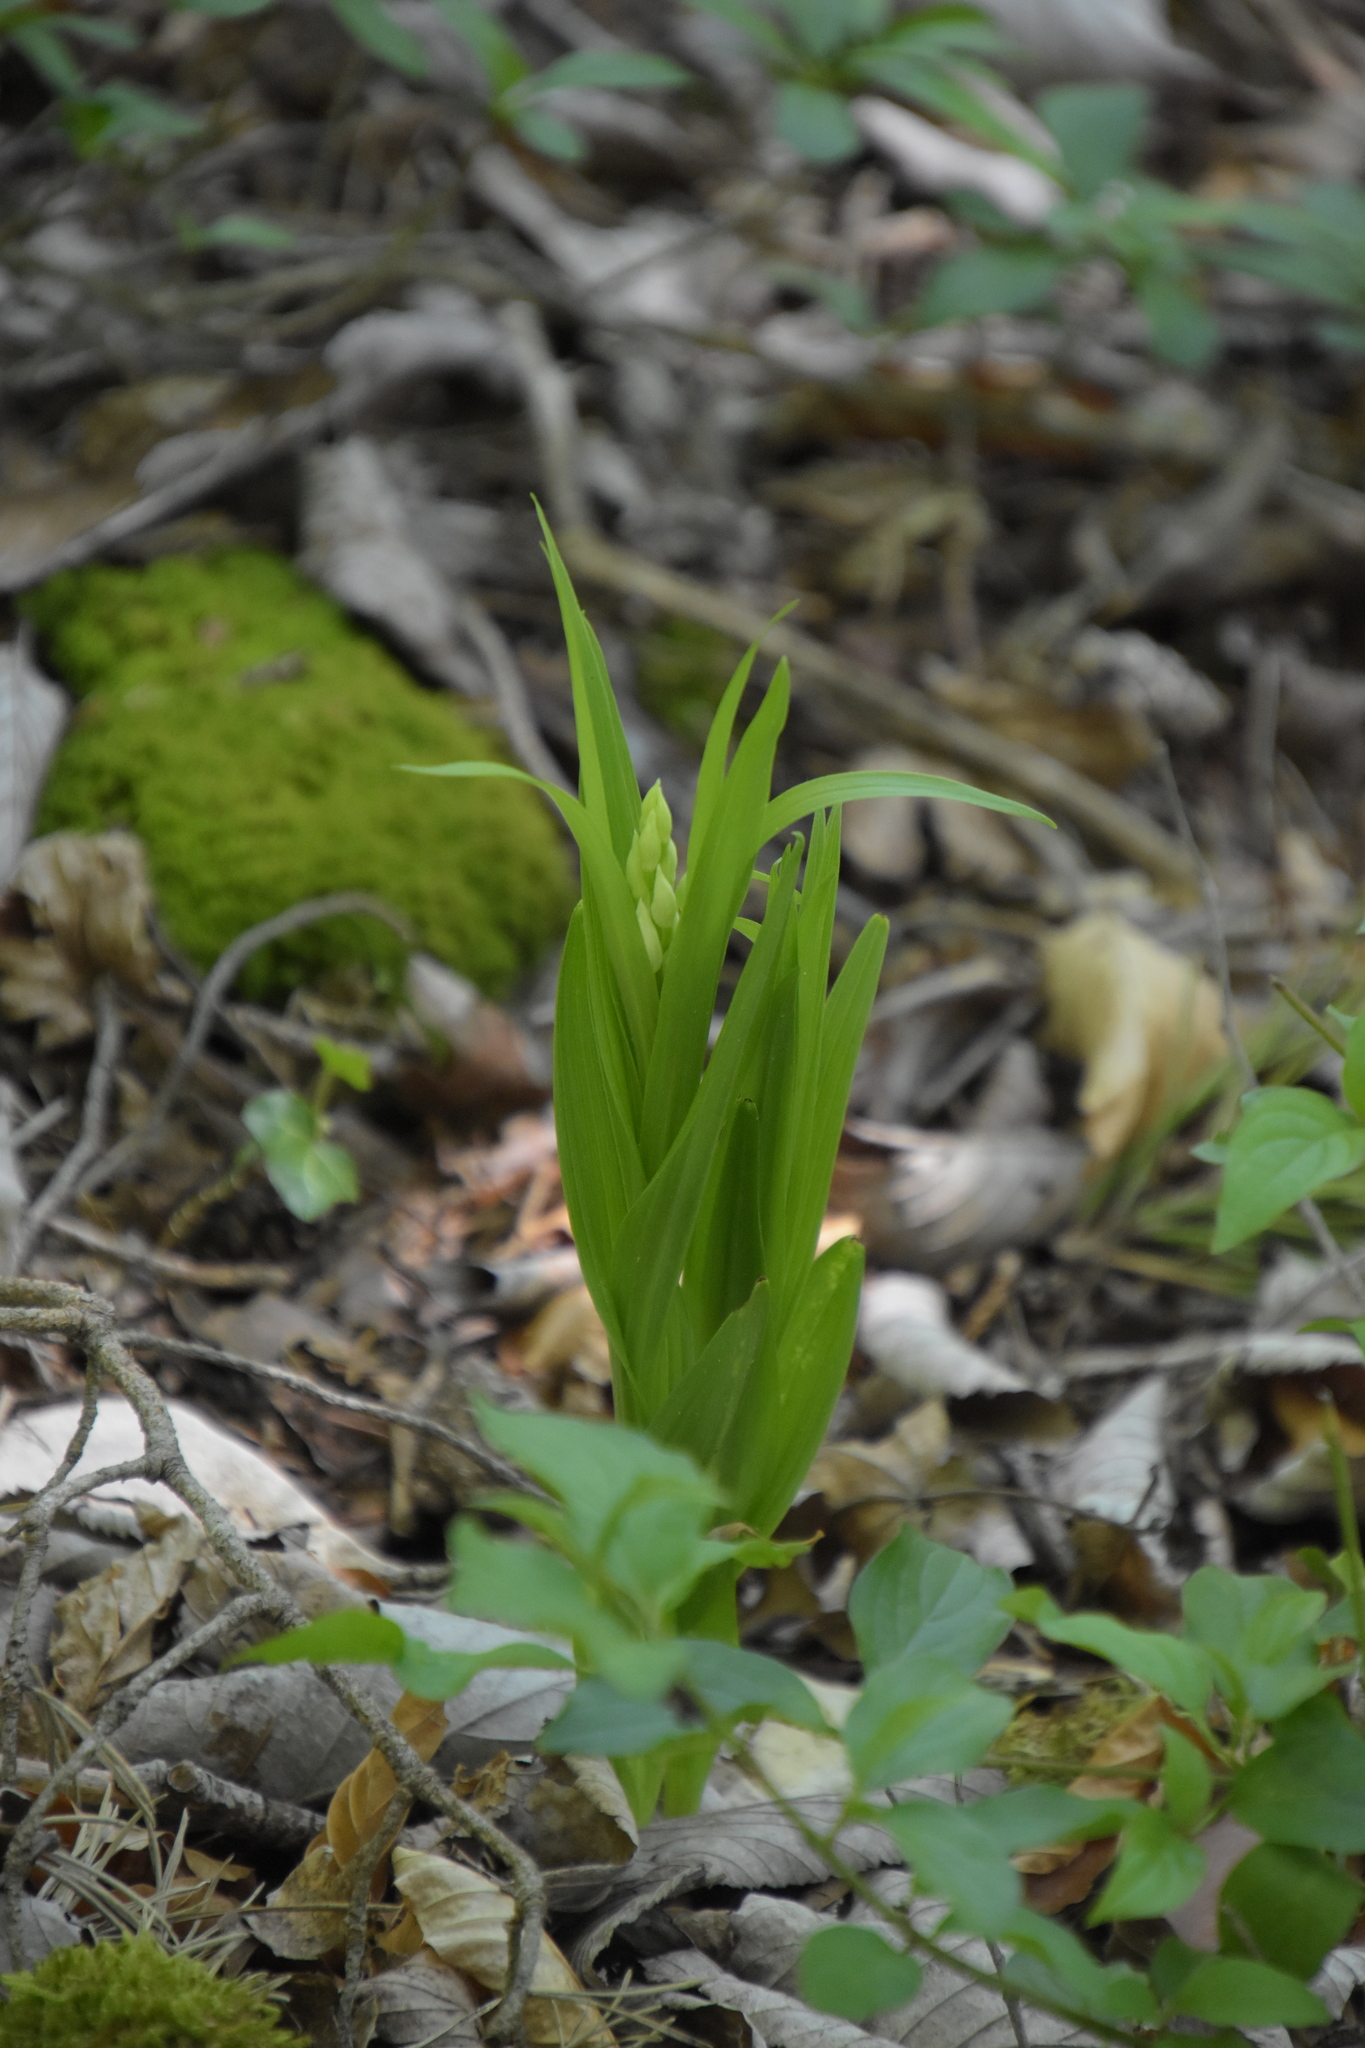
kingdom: Plantae
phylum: Tracheophyta
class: Liliopsida
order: Asparagales
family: Orchidaceae
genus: Cephalanthera
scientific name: Cephalanthera longifolia
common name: Narrow-leaved helleborine
